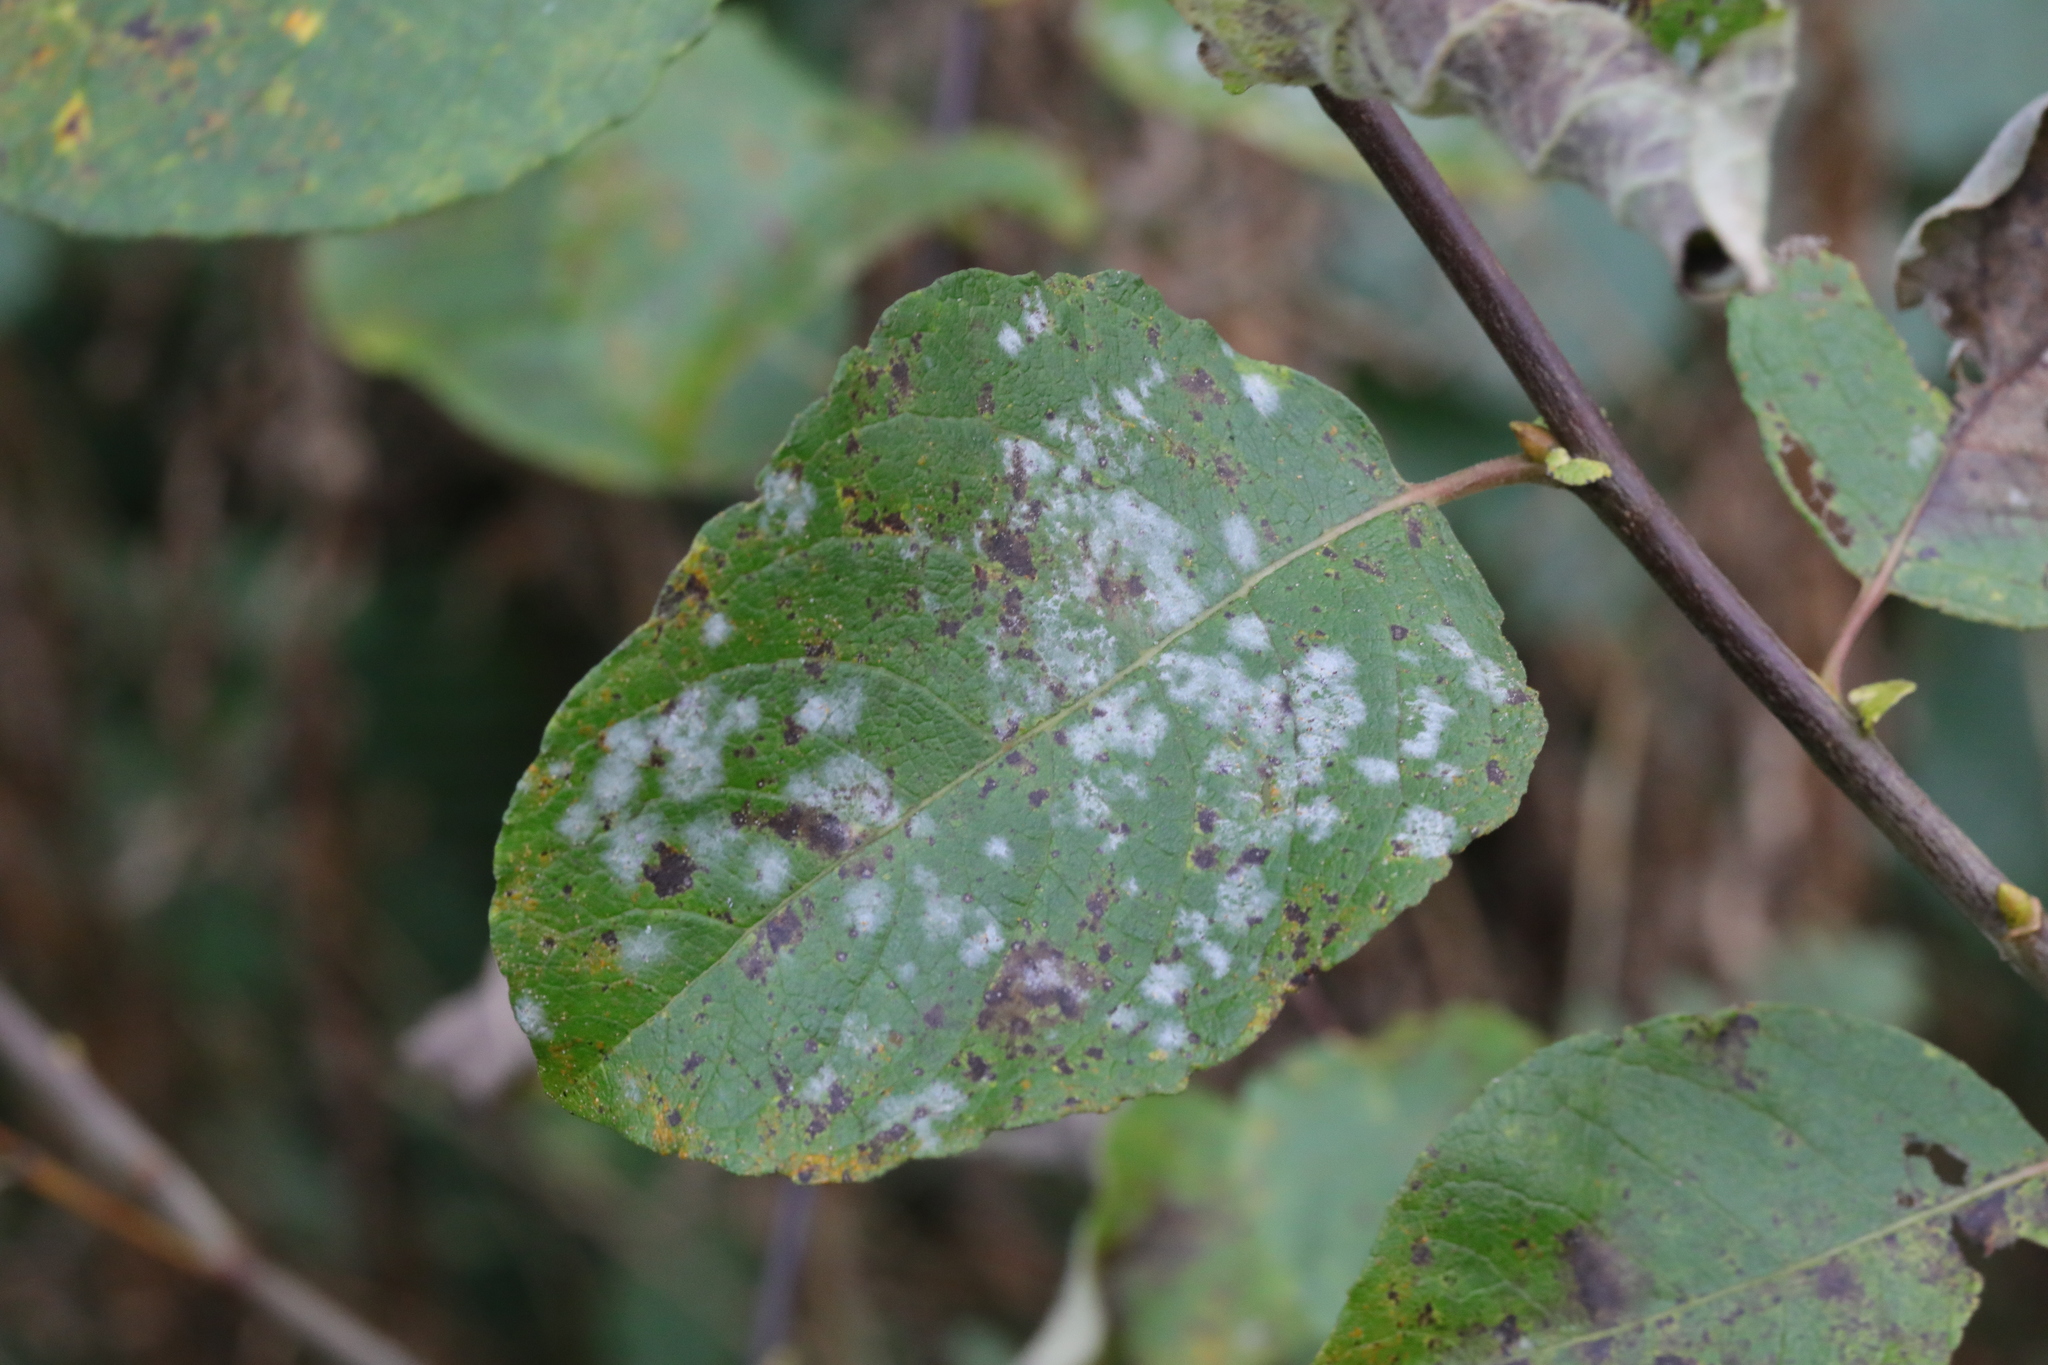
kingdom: Fungi
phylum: Ascomycota
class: Leotiomycetes
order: Helotiales
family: Erysiphaceae
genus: Erysiphe
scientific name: Erysiphe capreae
